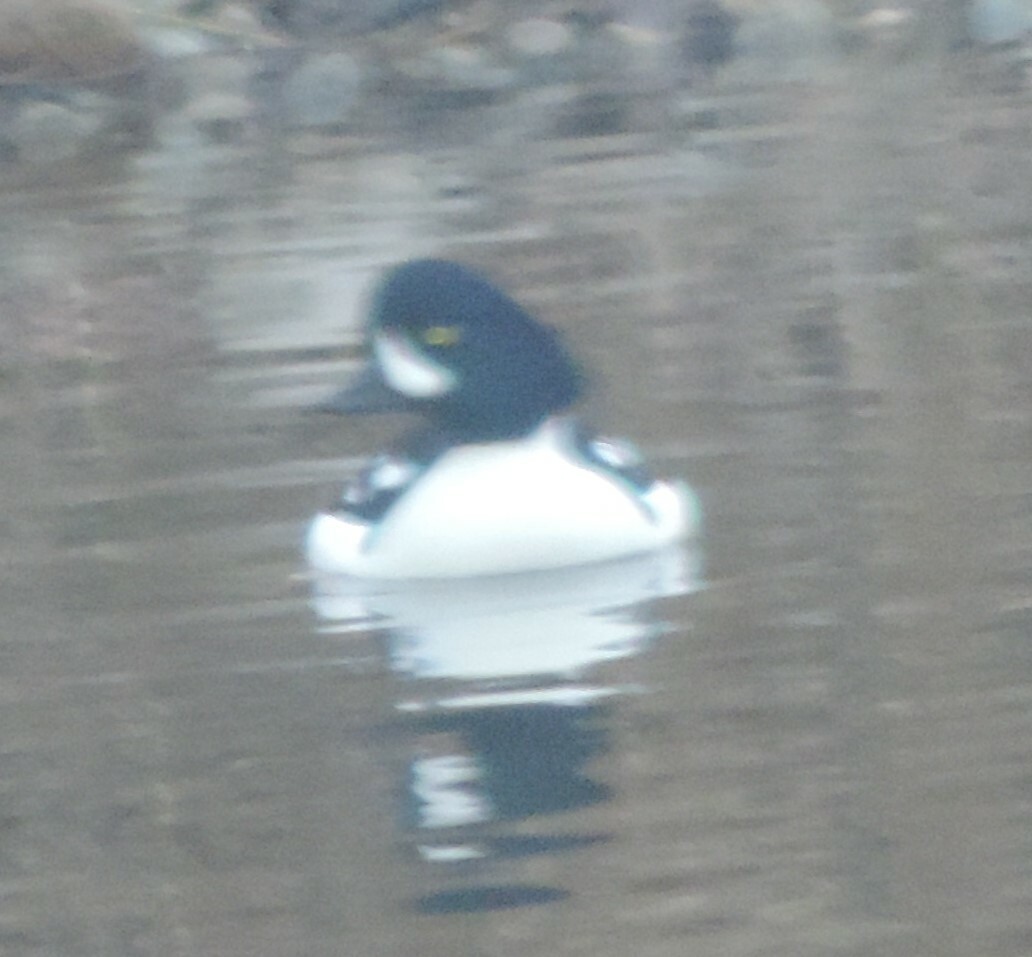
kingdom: Animalia
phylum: Chordata
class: Aves
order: Anseriformes
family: Anatidae
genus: Bucephala
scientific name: Bucephala islandica
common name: Barrow's goldeneye
